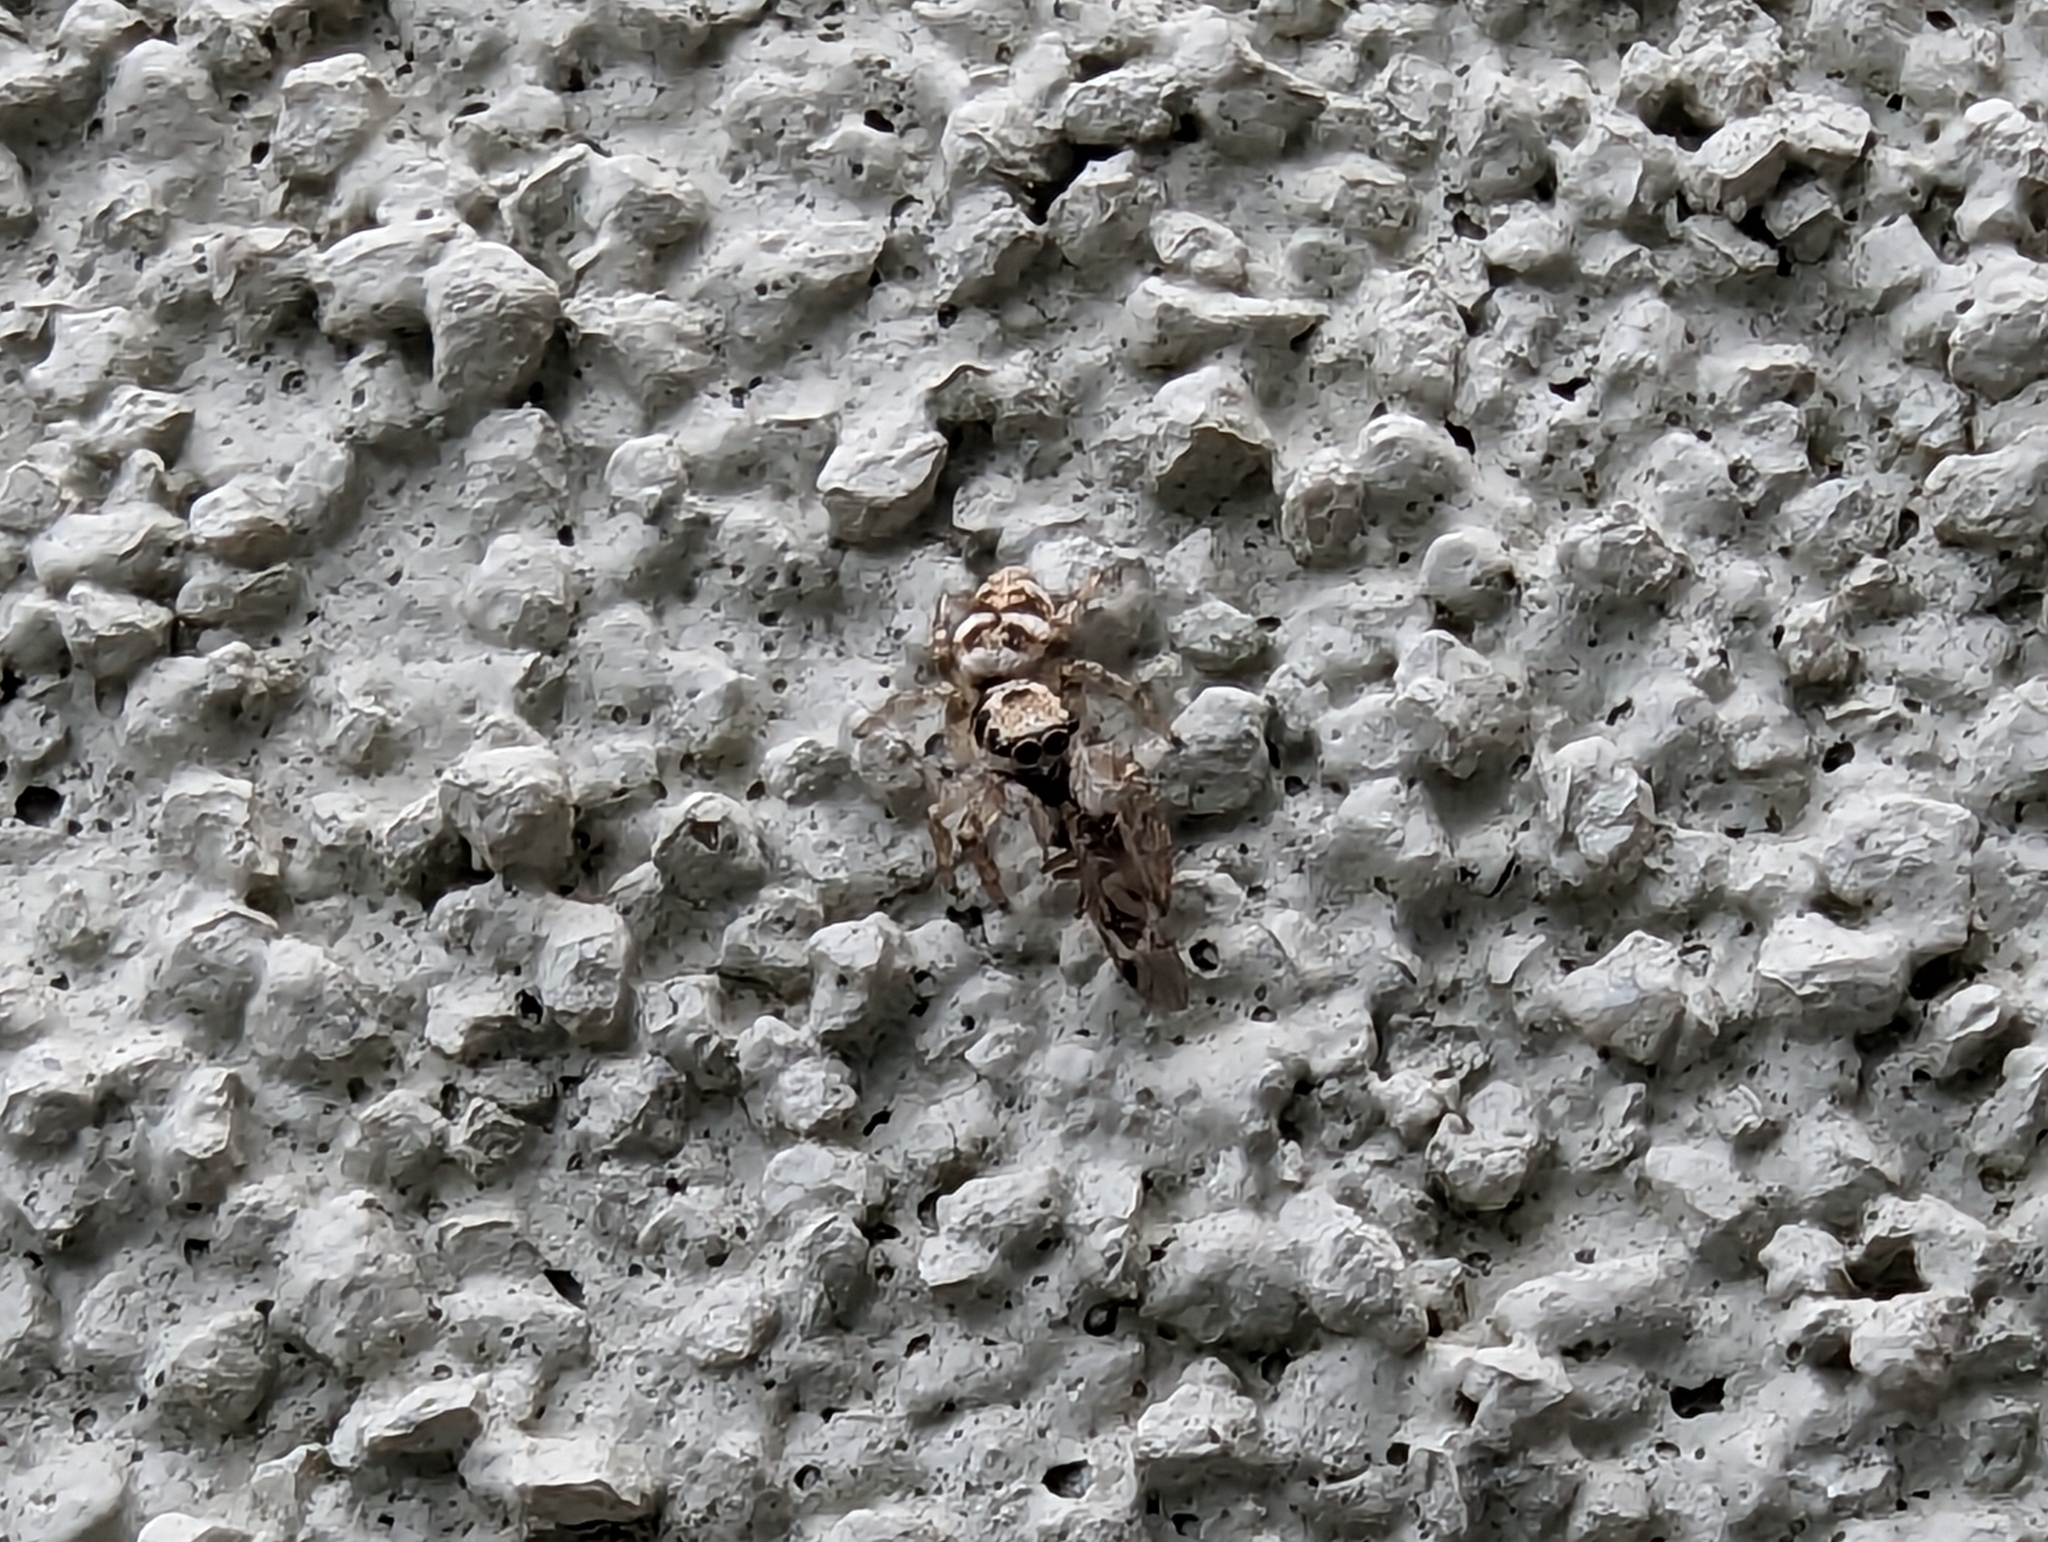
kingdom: Animalia
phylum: Arthropoda
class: Arachnida
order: Araneae
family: Salticidae
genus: Salticus
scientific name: Salticus scenicus
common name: Zebra jumper
